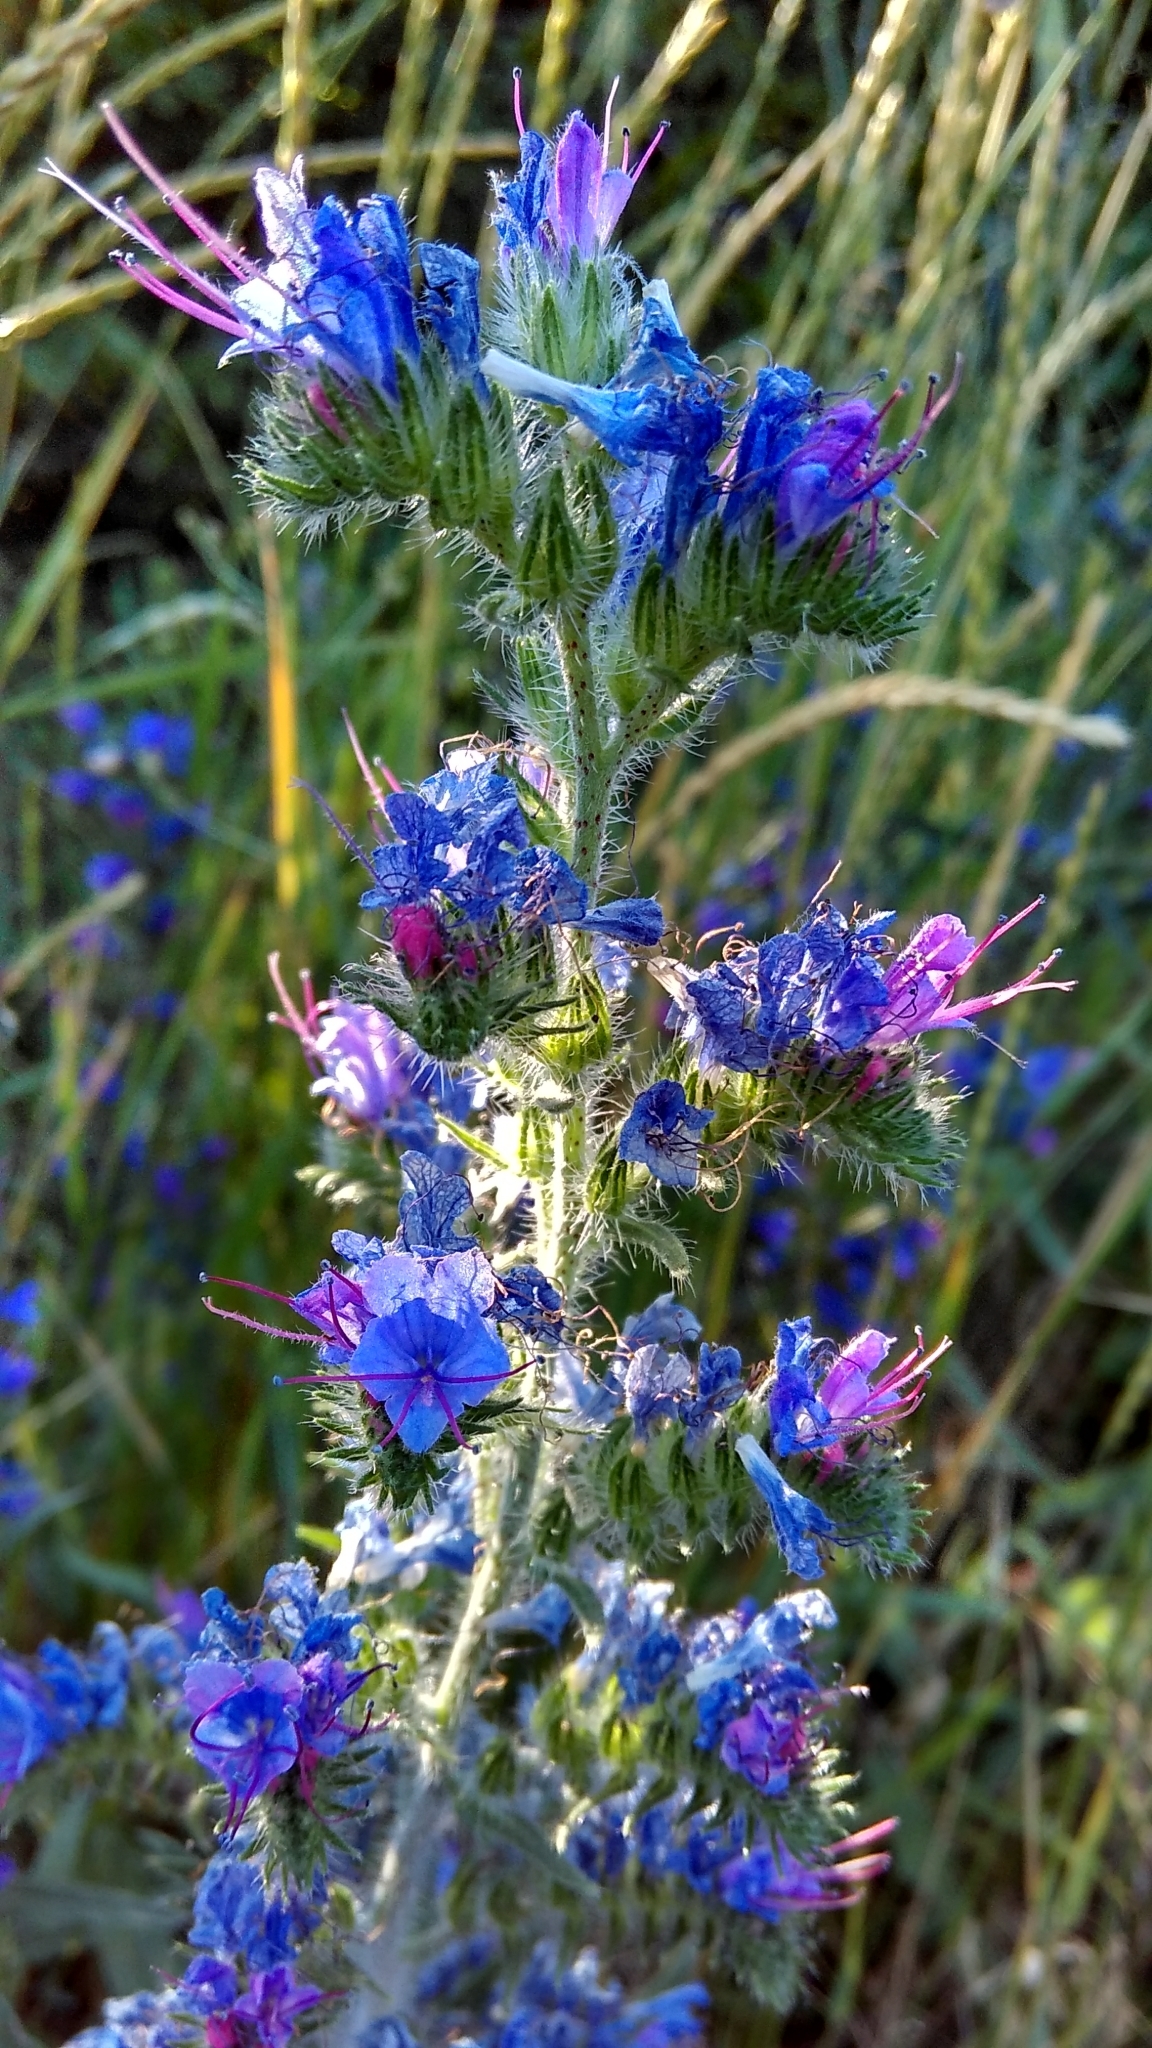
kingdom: Plantae
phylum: Tracheophyta
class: Magnoliopsida
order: Boraginales
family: Boraginaceae
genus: Echium
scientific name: Echium vulgare
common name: Common viper's bugloss
